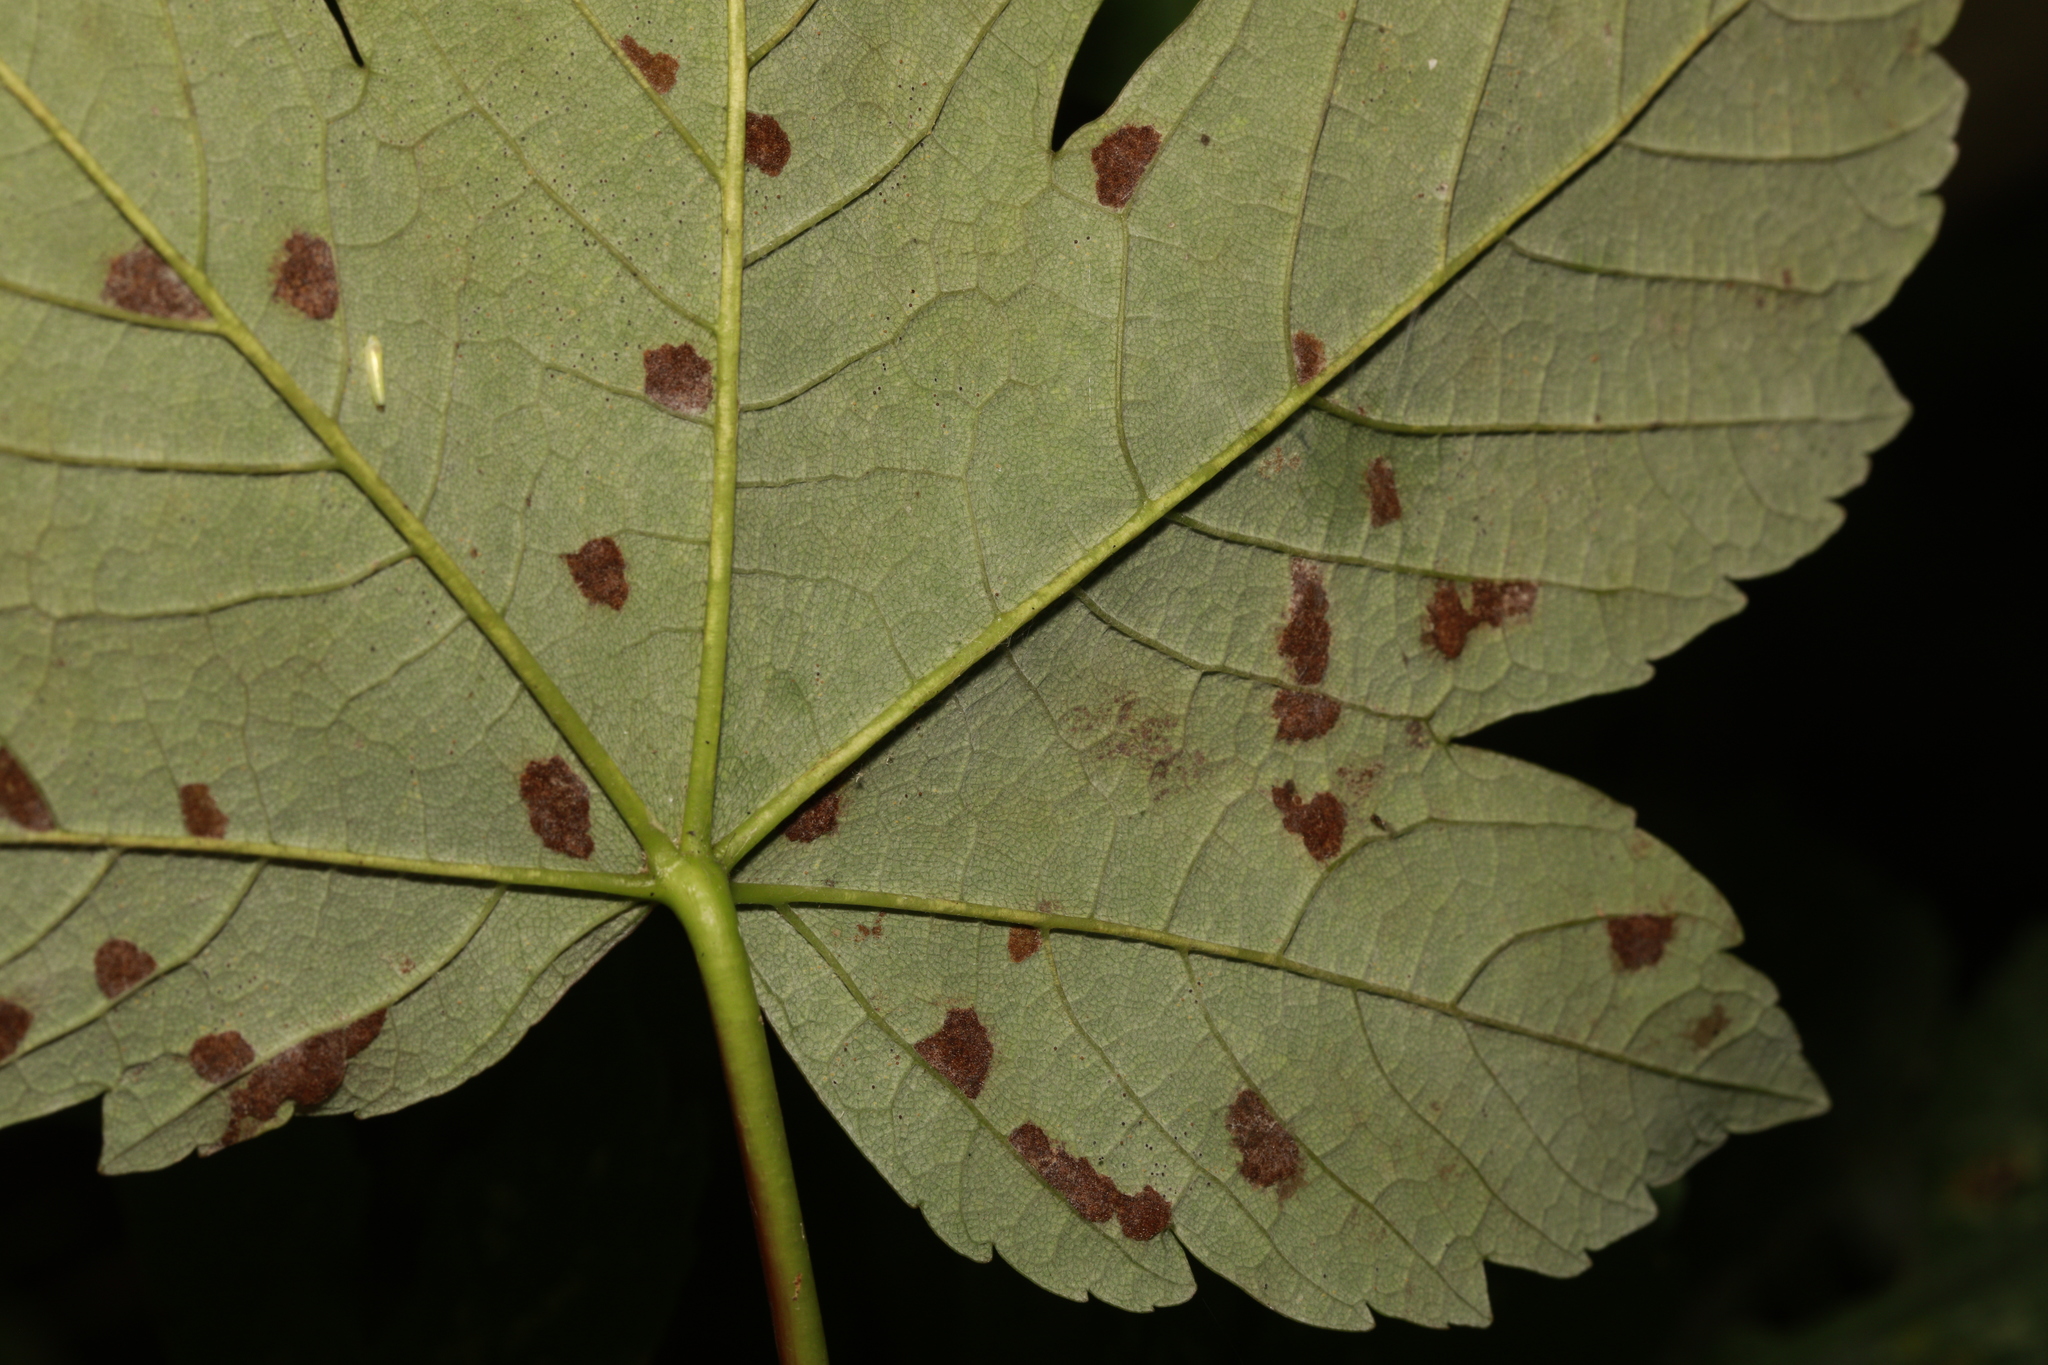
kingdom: Animalia
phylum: Arthropoda
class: Arachnida
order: Trombidiformes
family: Eriophyidae
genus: Aceria
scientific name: Aceria pseudoplatani
